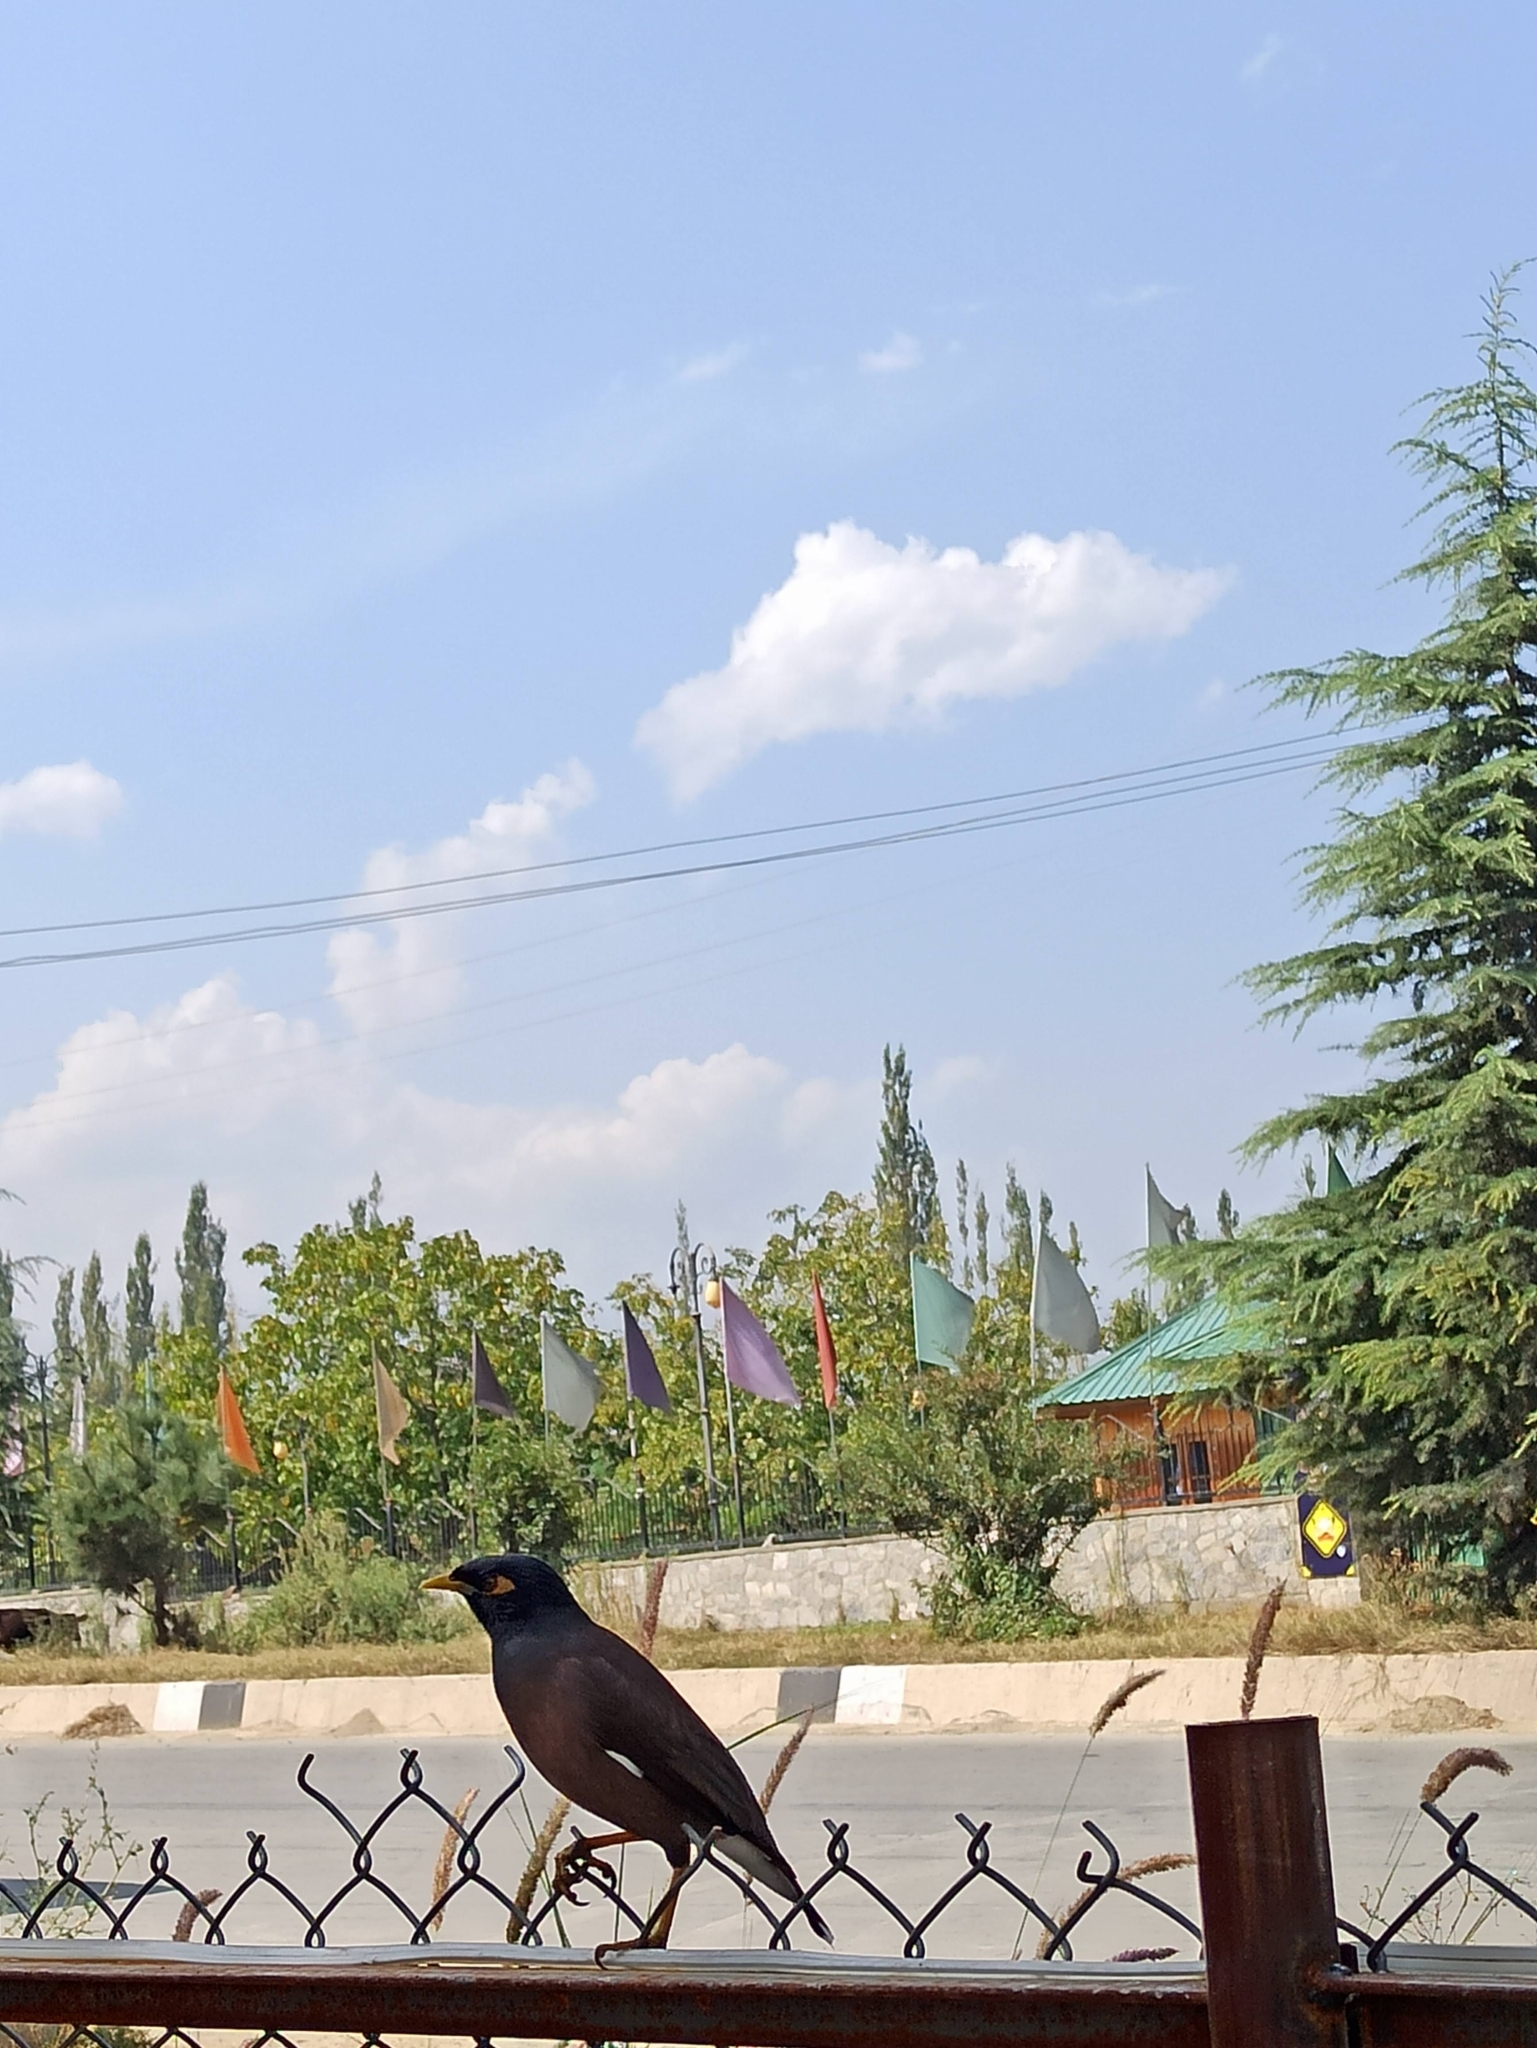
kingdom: Animalia
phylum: Chordata
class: Aves
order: Passeriformes
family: Sturnidae
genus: Acridotheres
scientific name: Acridotheres tristis
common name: Common myna
